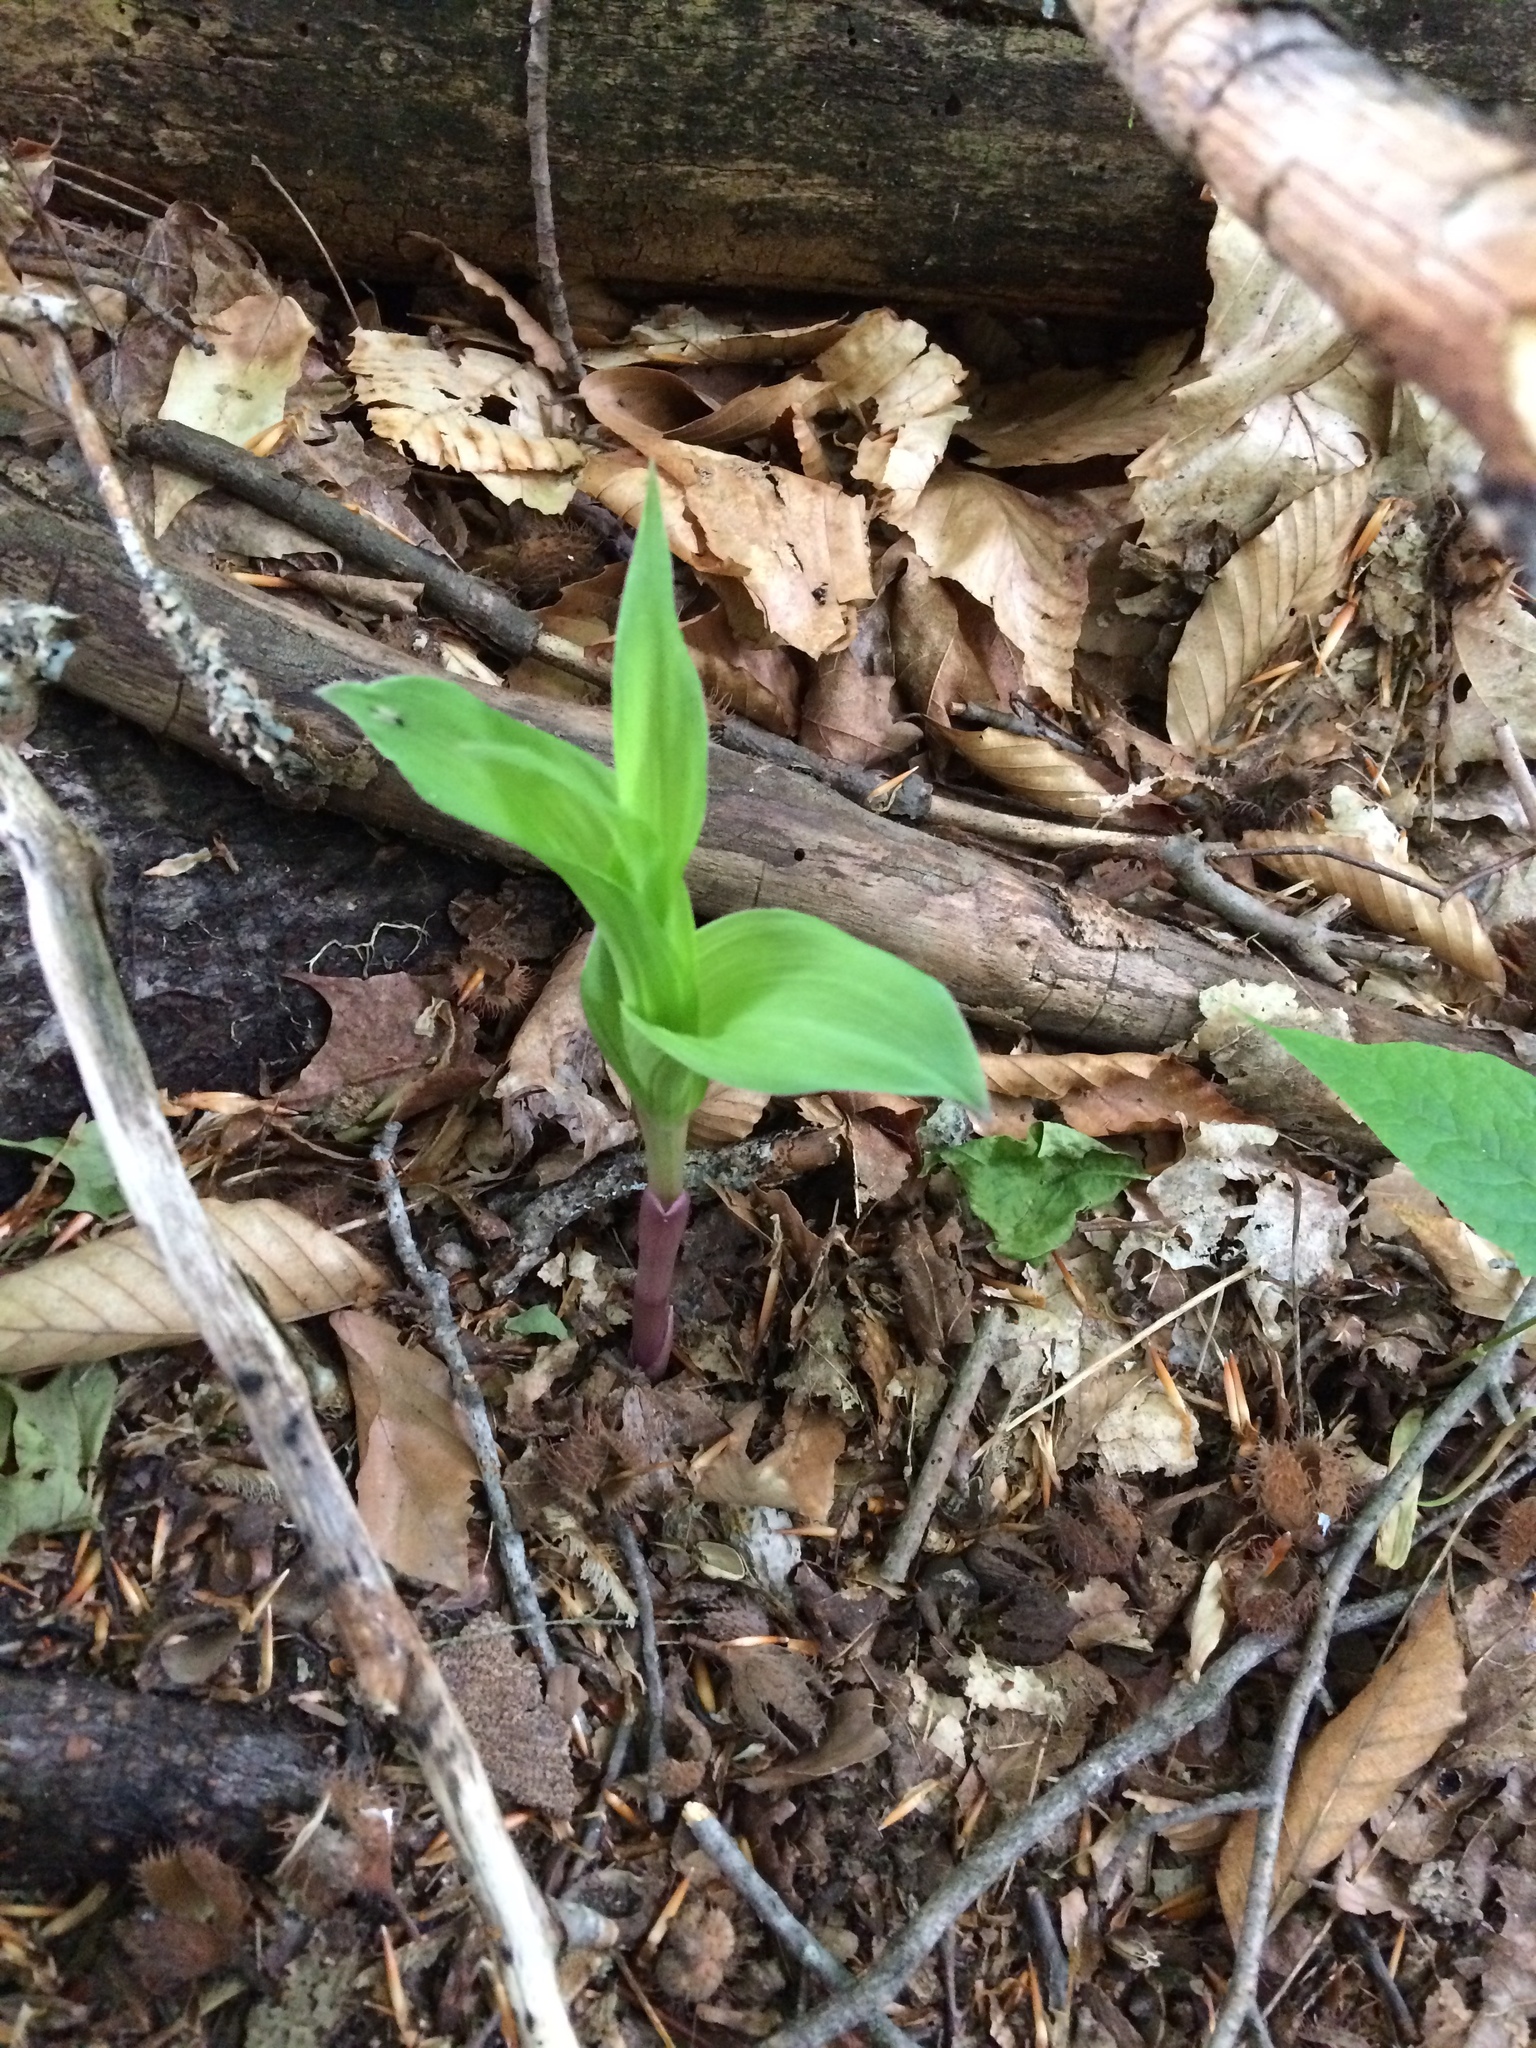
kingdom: Plantae
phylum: Tracheophyta
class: Liliopsida
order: Asparagales
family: Orchidaceae
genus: Epipactis
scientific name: Epipactis helleborine
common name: Broad-leaved helleborine
